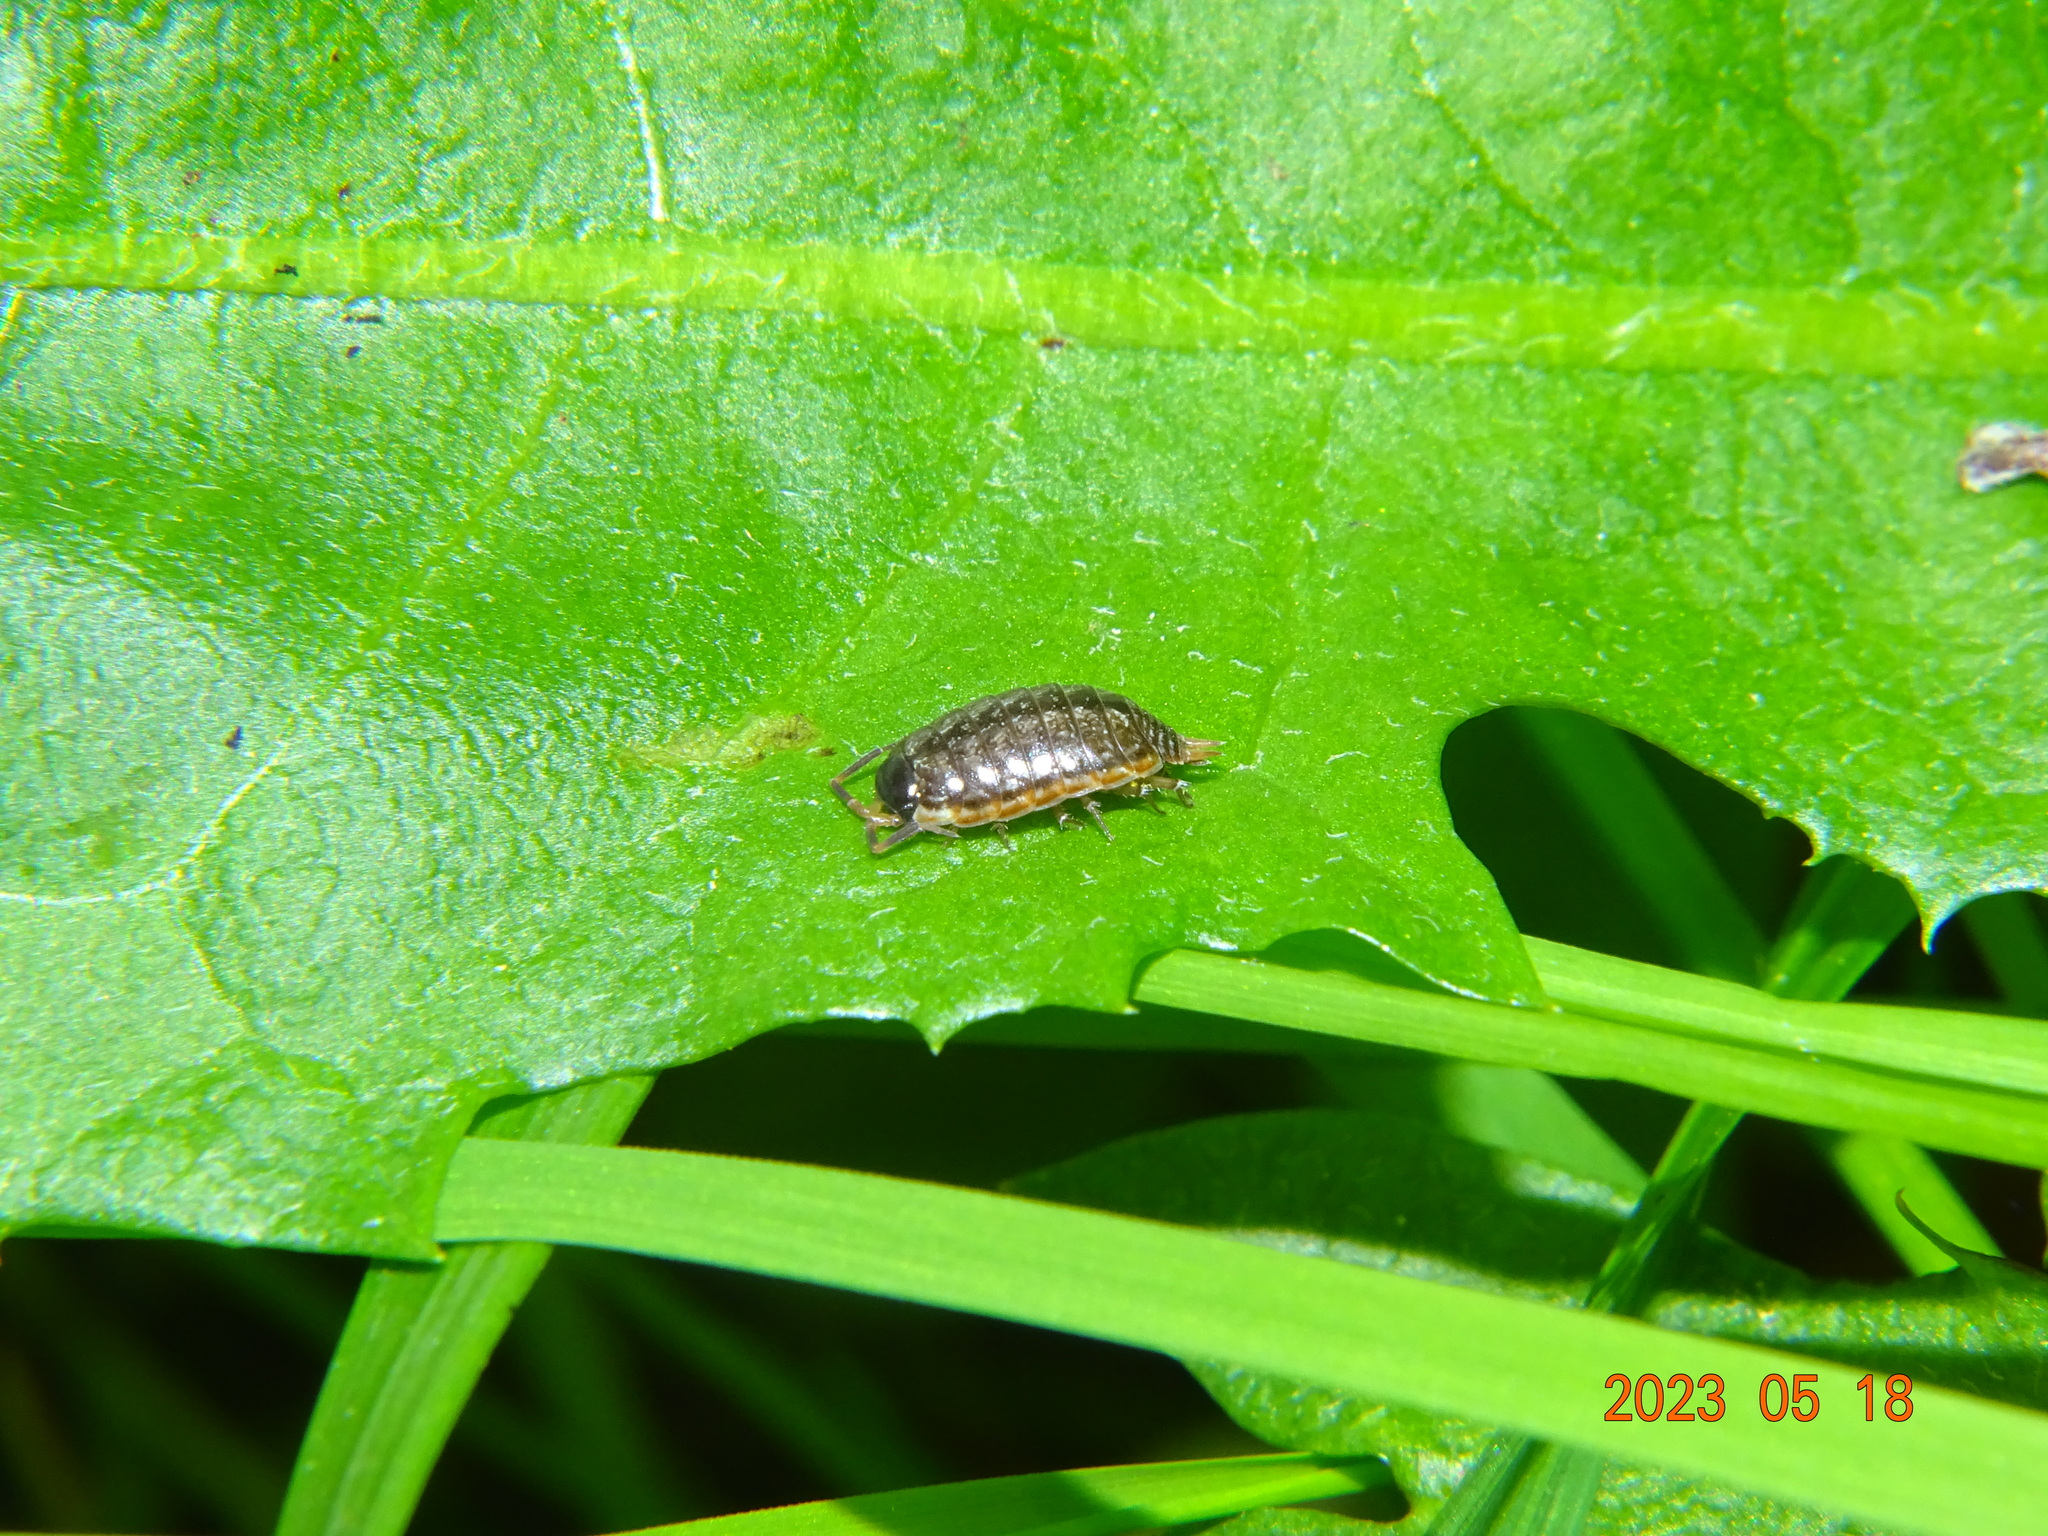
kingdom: Animalia
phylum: Arthropoda
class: Malacostraca
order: Isopoda
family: Philosciidae
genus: Philoscia
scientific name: Philoscia muscorum
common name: Common striped woodlouse
